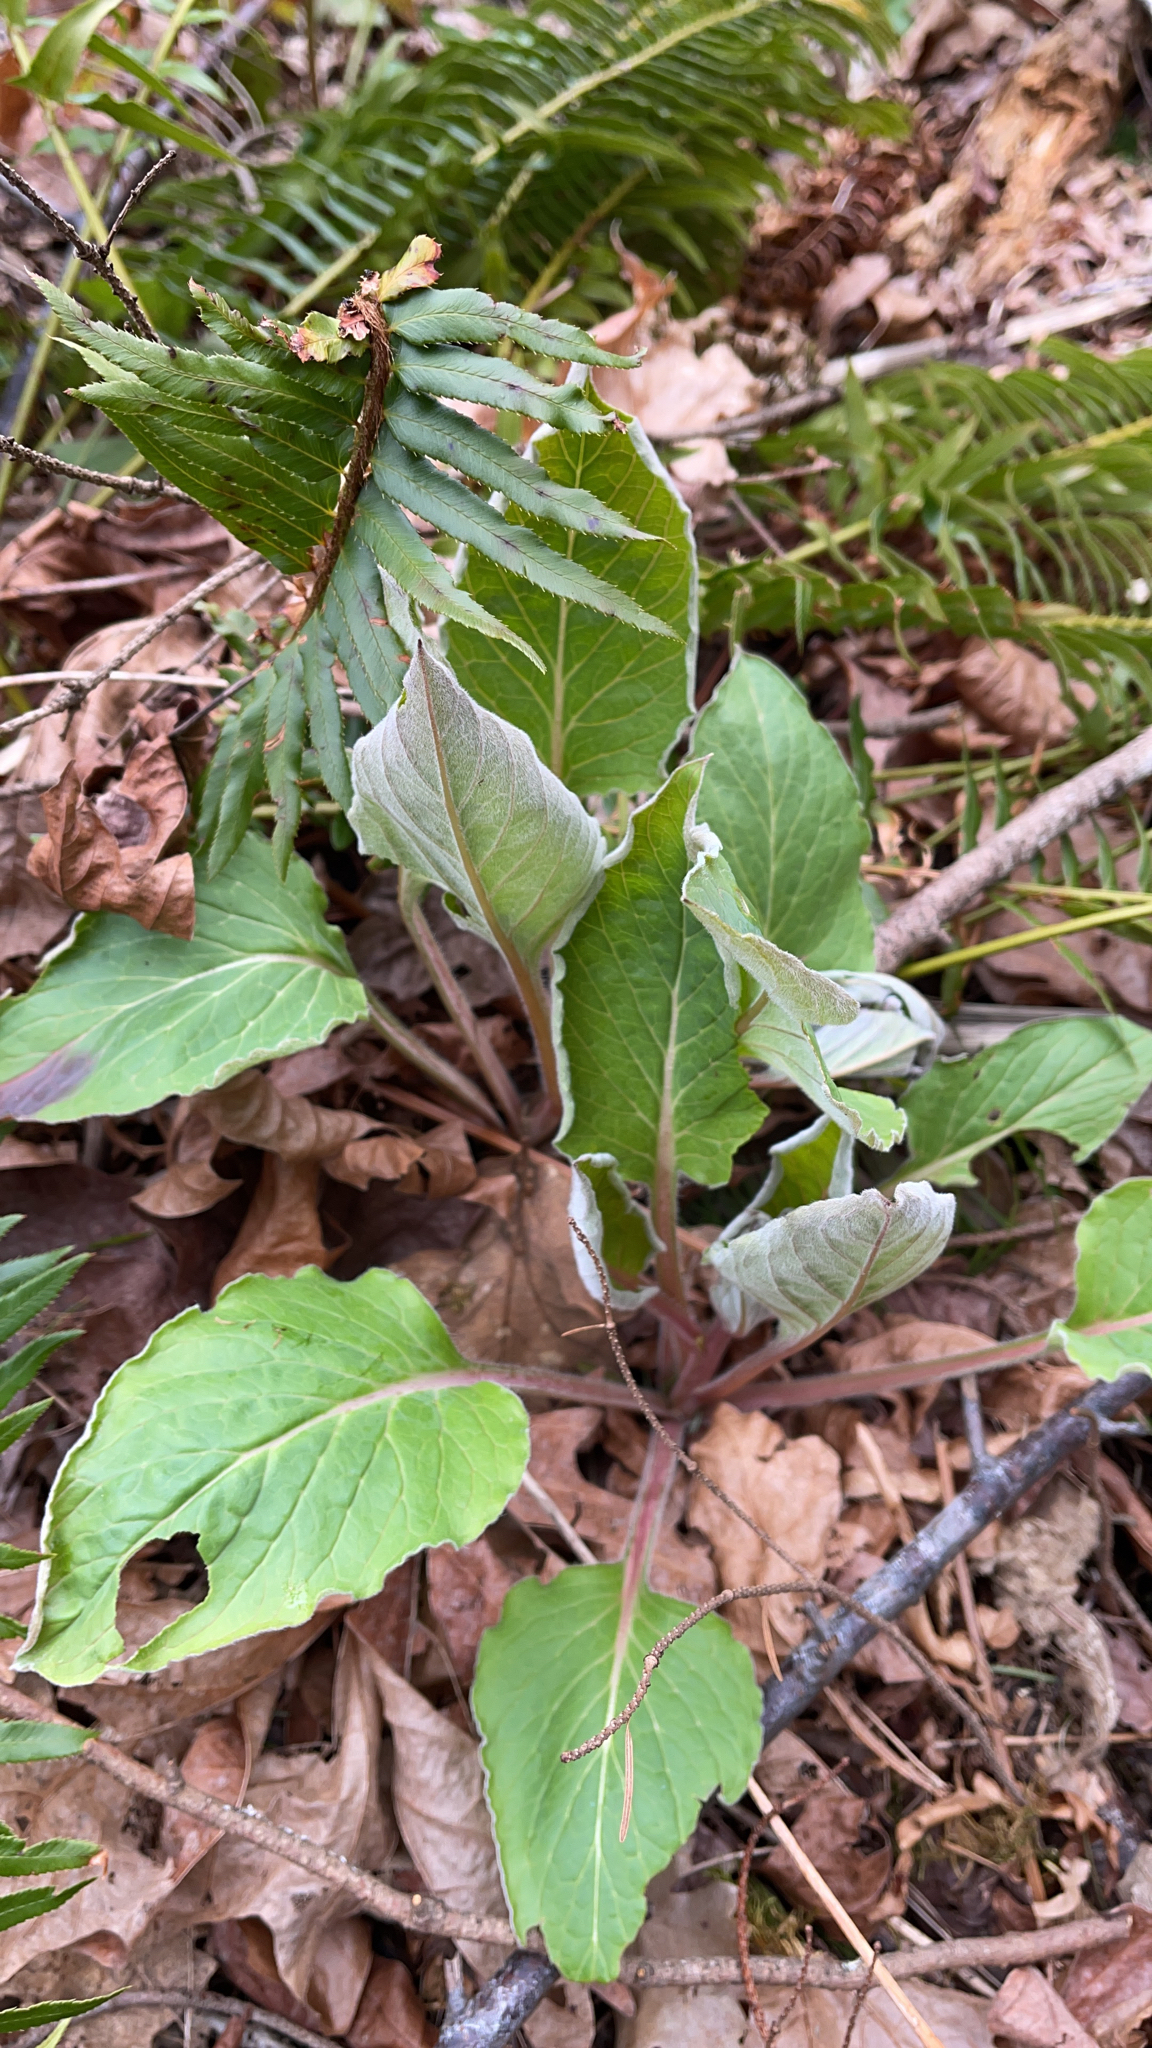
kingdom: Plantae
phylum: Tracheophyta
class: Magnoliopsida
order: Boraginales
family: Boraginaceae
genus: Adelinia
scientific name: Adelinia grande
